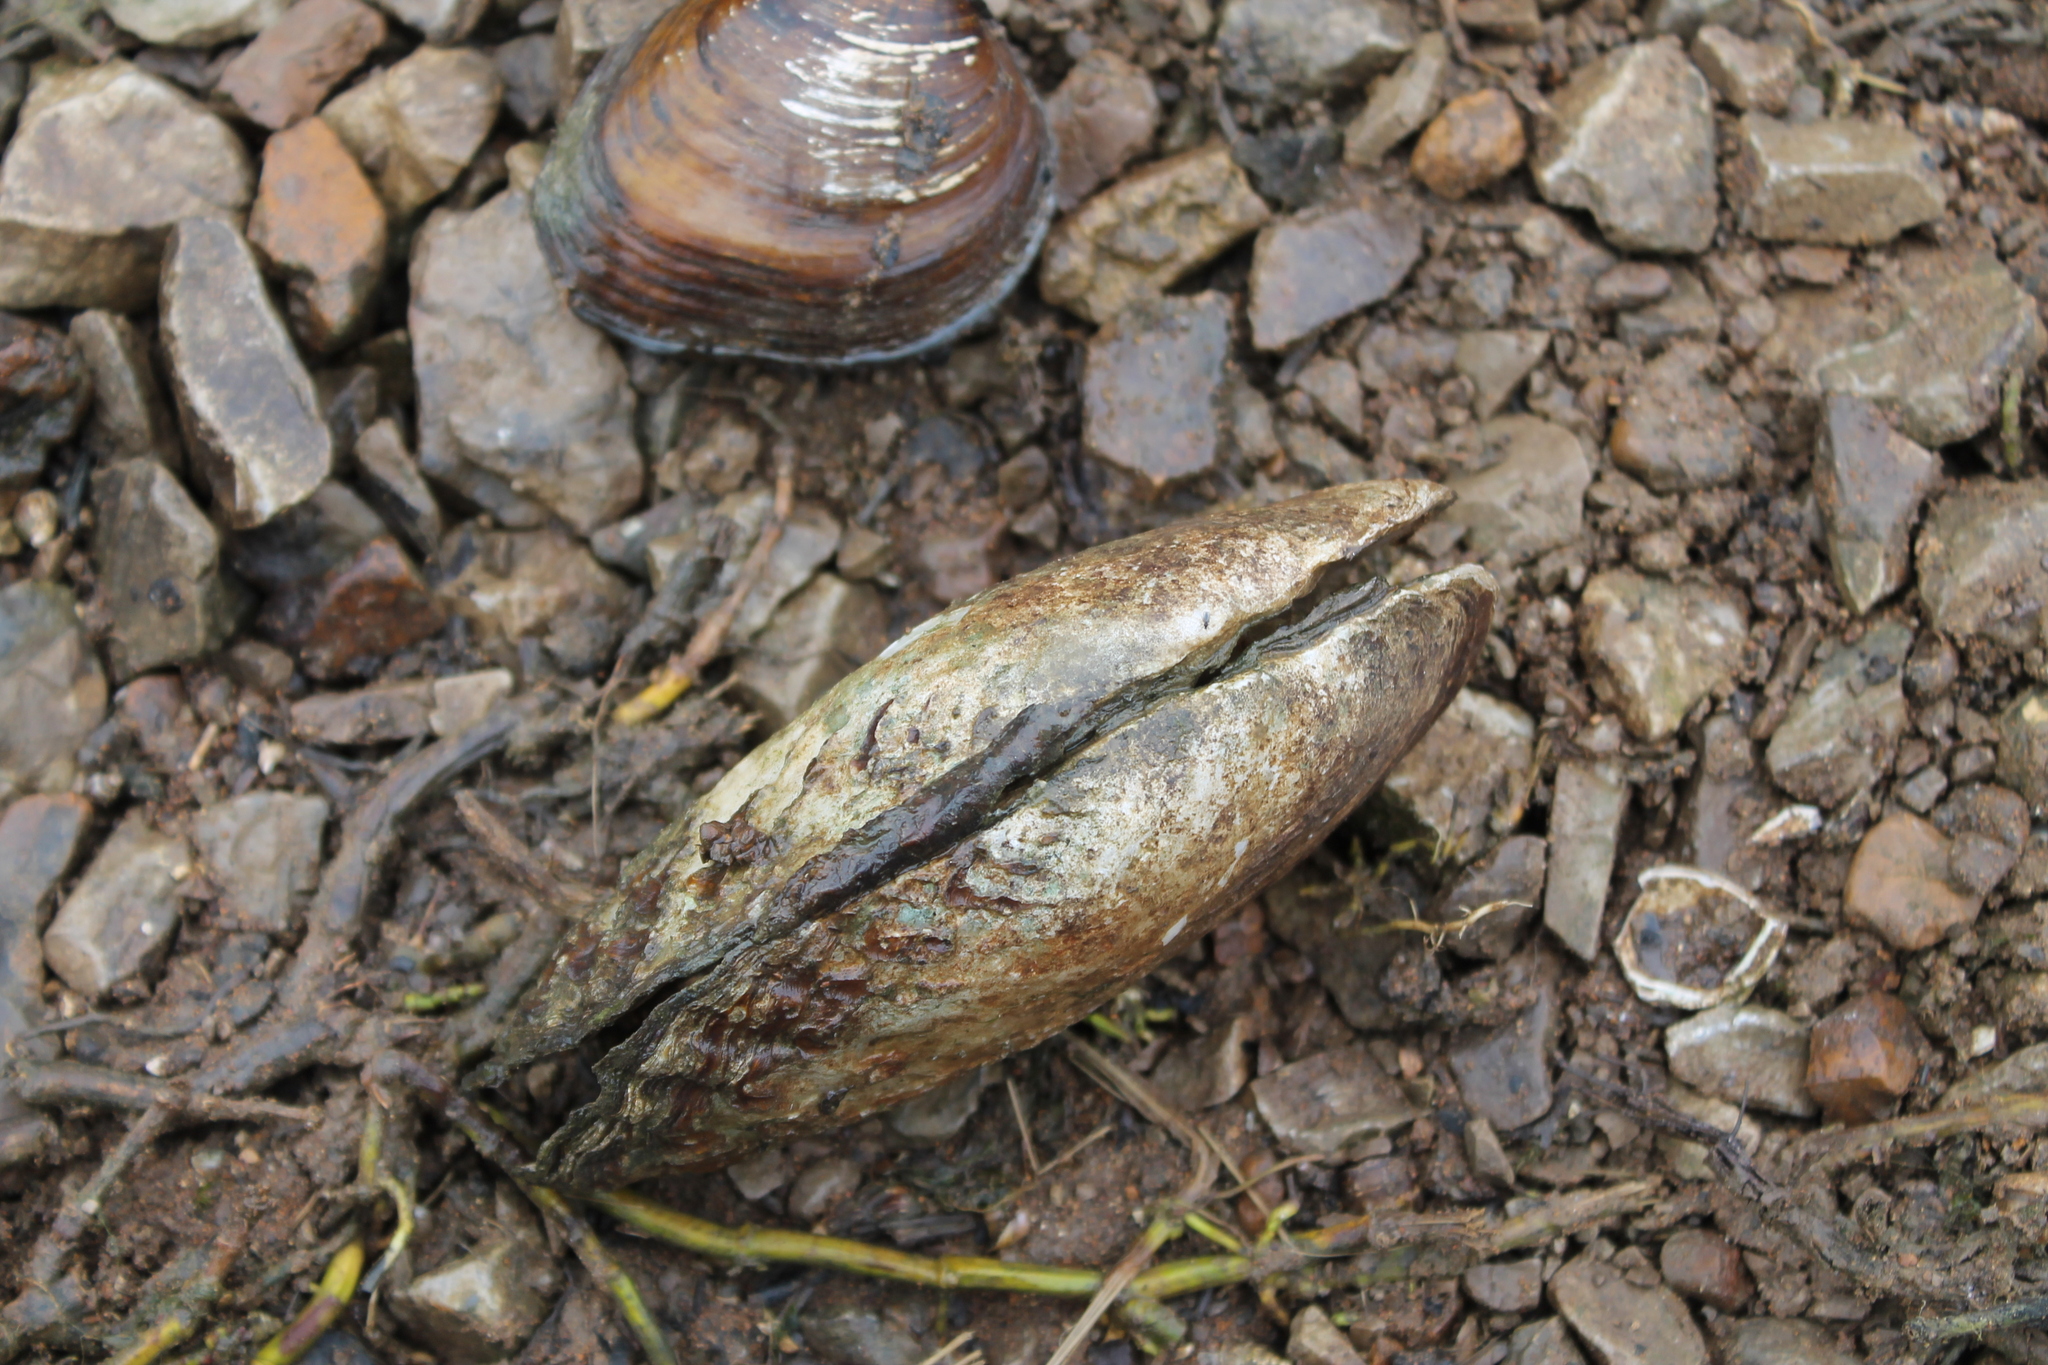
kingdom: Animalia
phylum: Mollusca
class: Bivalvia
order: Unionida
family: Unionidae
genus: Lasmigona
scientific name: Lasmigona costata
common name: Flutedshell
